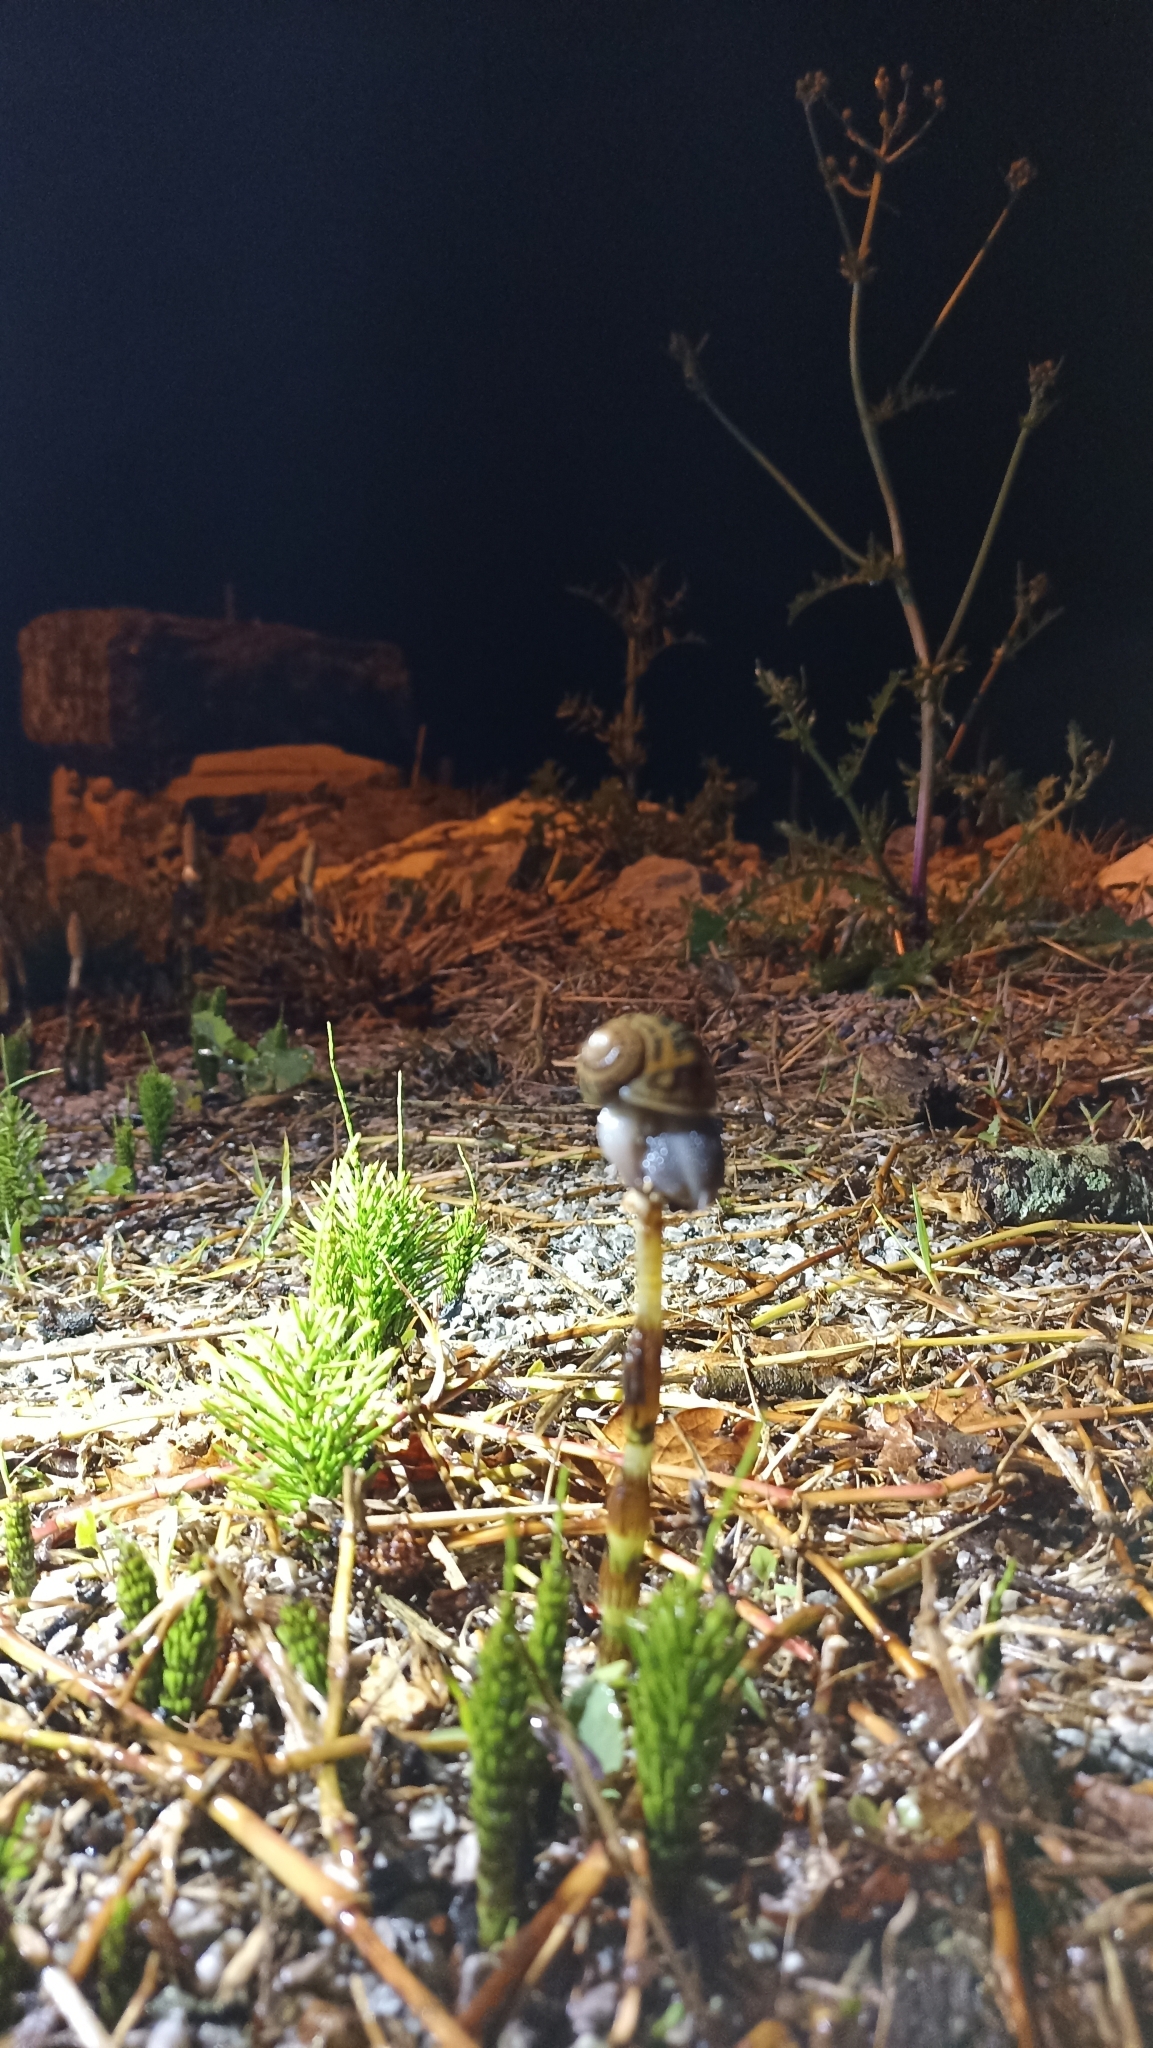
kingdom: Plantae
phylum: Tracheophyta
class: Polypodiopsida
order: Equisetales
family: Equisetaceae
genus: Equisetum
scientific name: Equisetum telmateia
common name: Great horsetail
